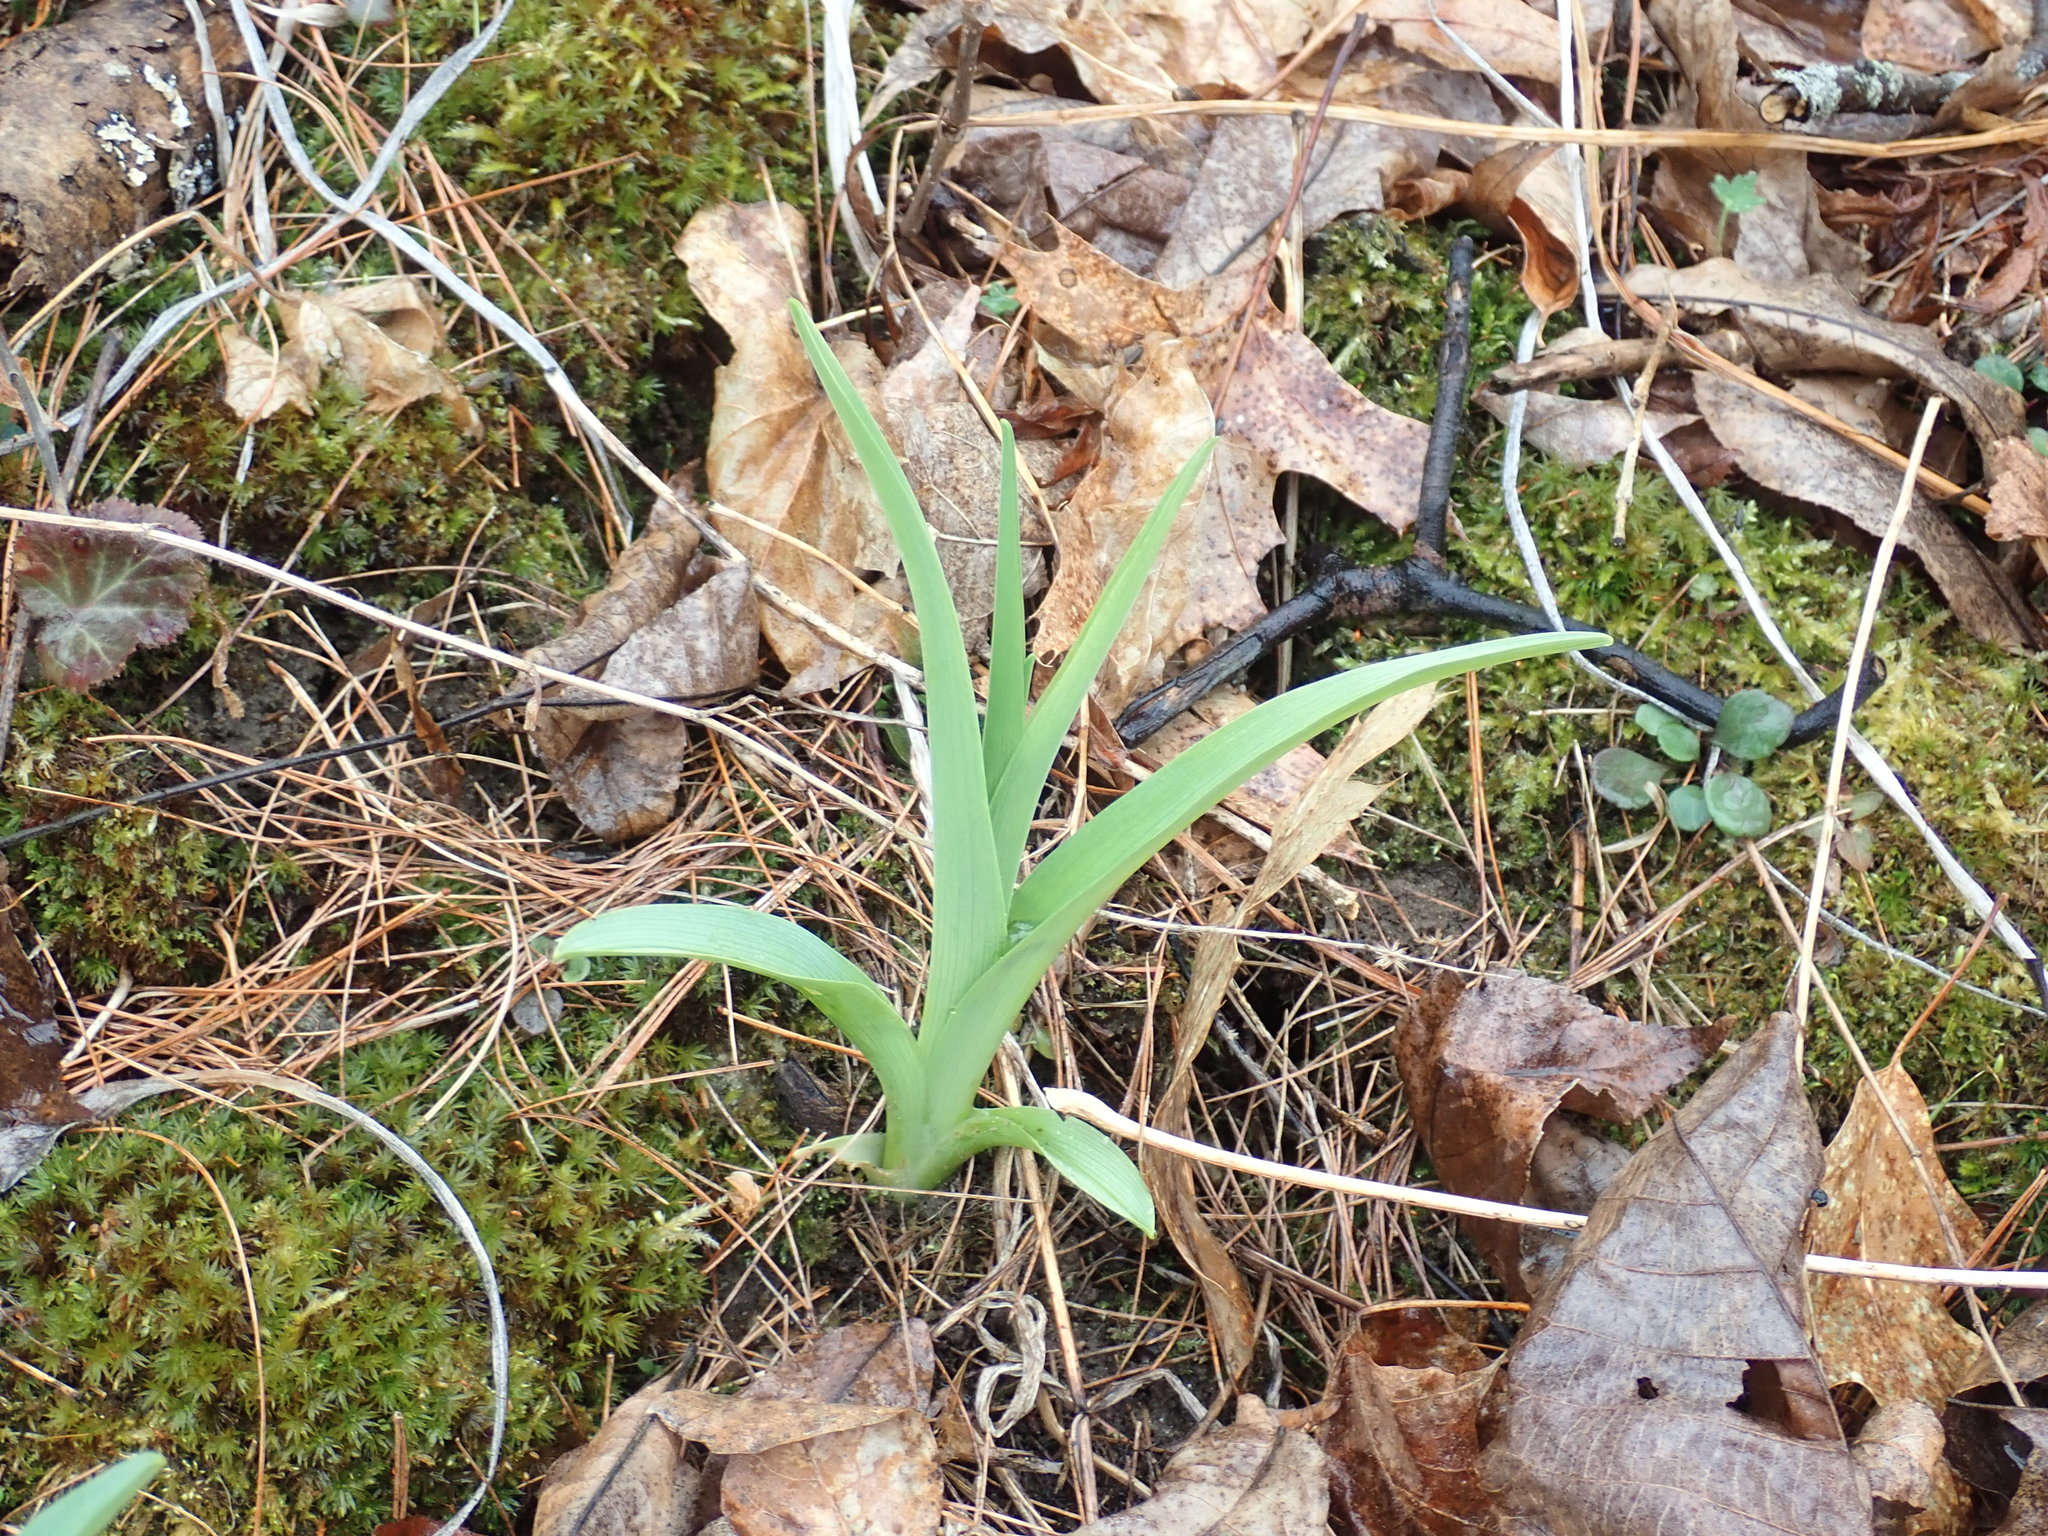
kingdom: Plantae
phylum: Tracheophyta
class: Liliopsida
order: Asparagales
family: Asphodelaceae
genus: Hemerocallis
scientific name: Hemerocallis
